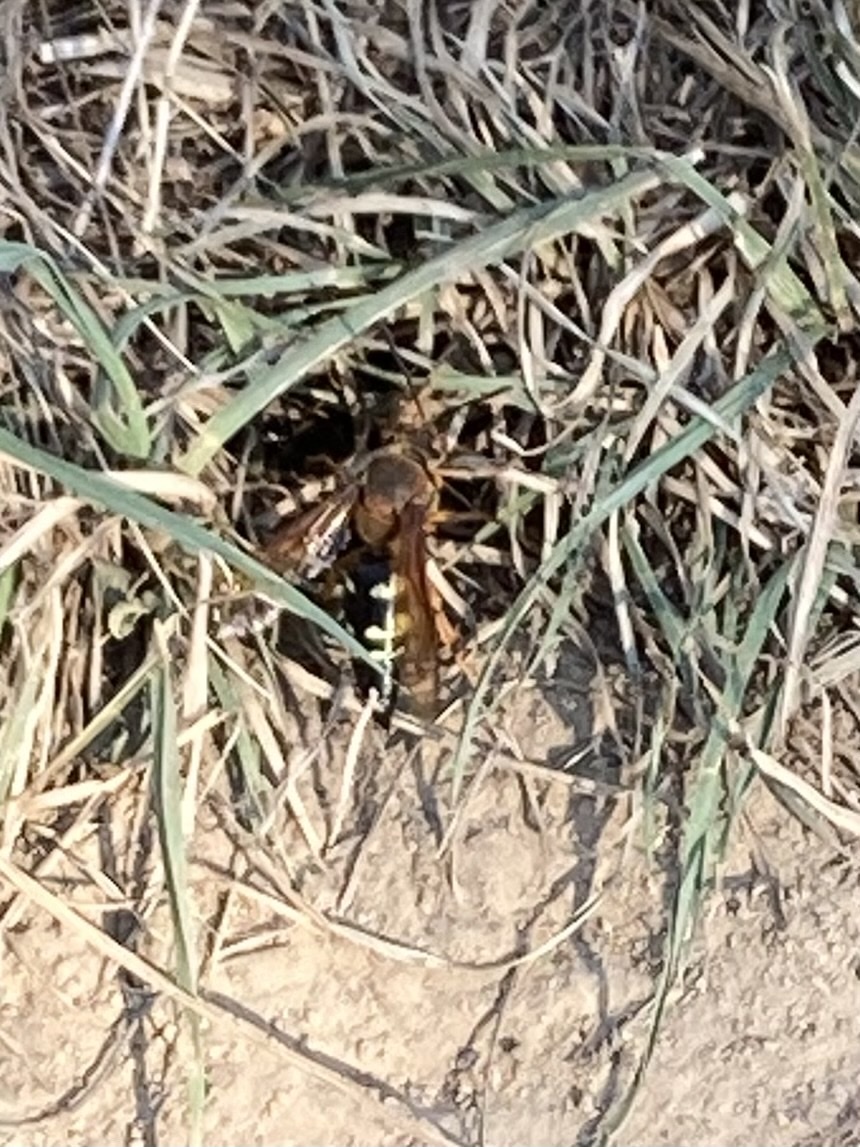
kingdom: Animalia
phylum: Arthropoda
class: Insecta
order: Hymenoptera
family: Crabronidae
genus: Sphecius
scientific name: Sphecius speciosus
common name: Cicada killer
